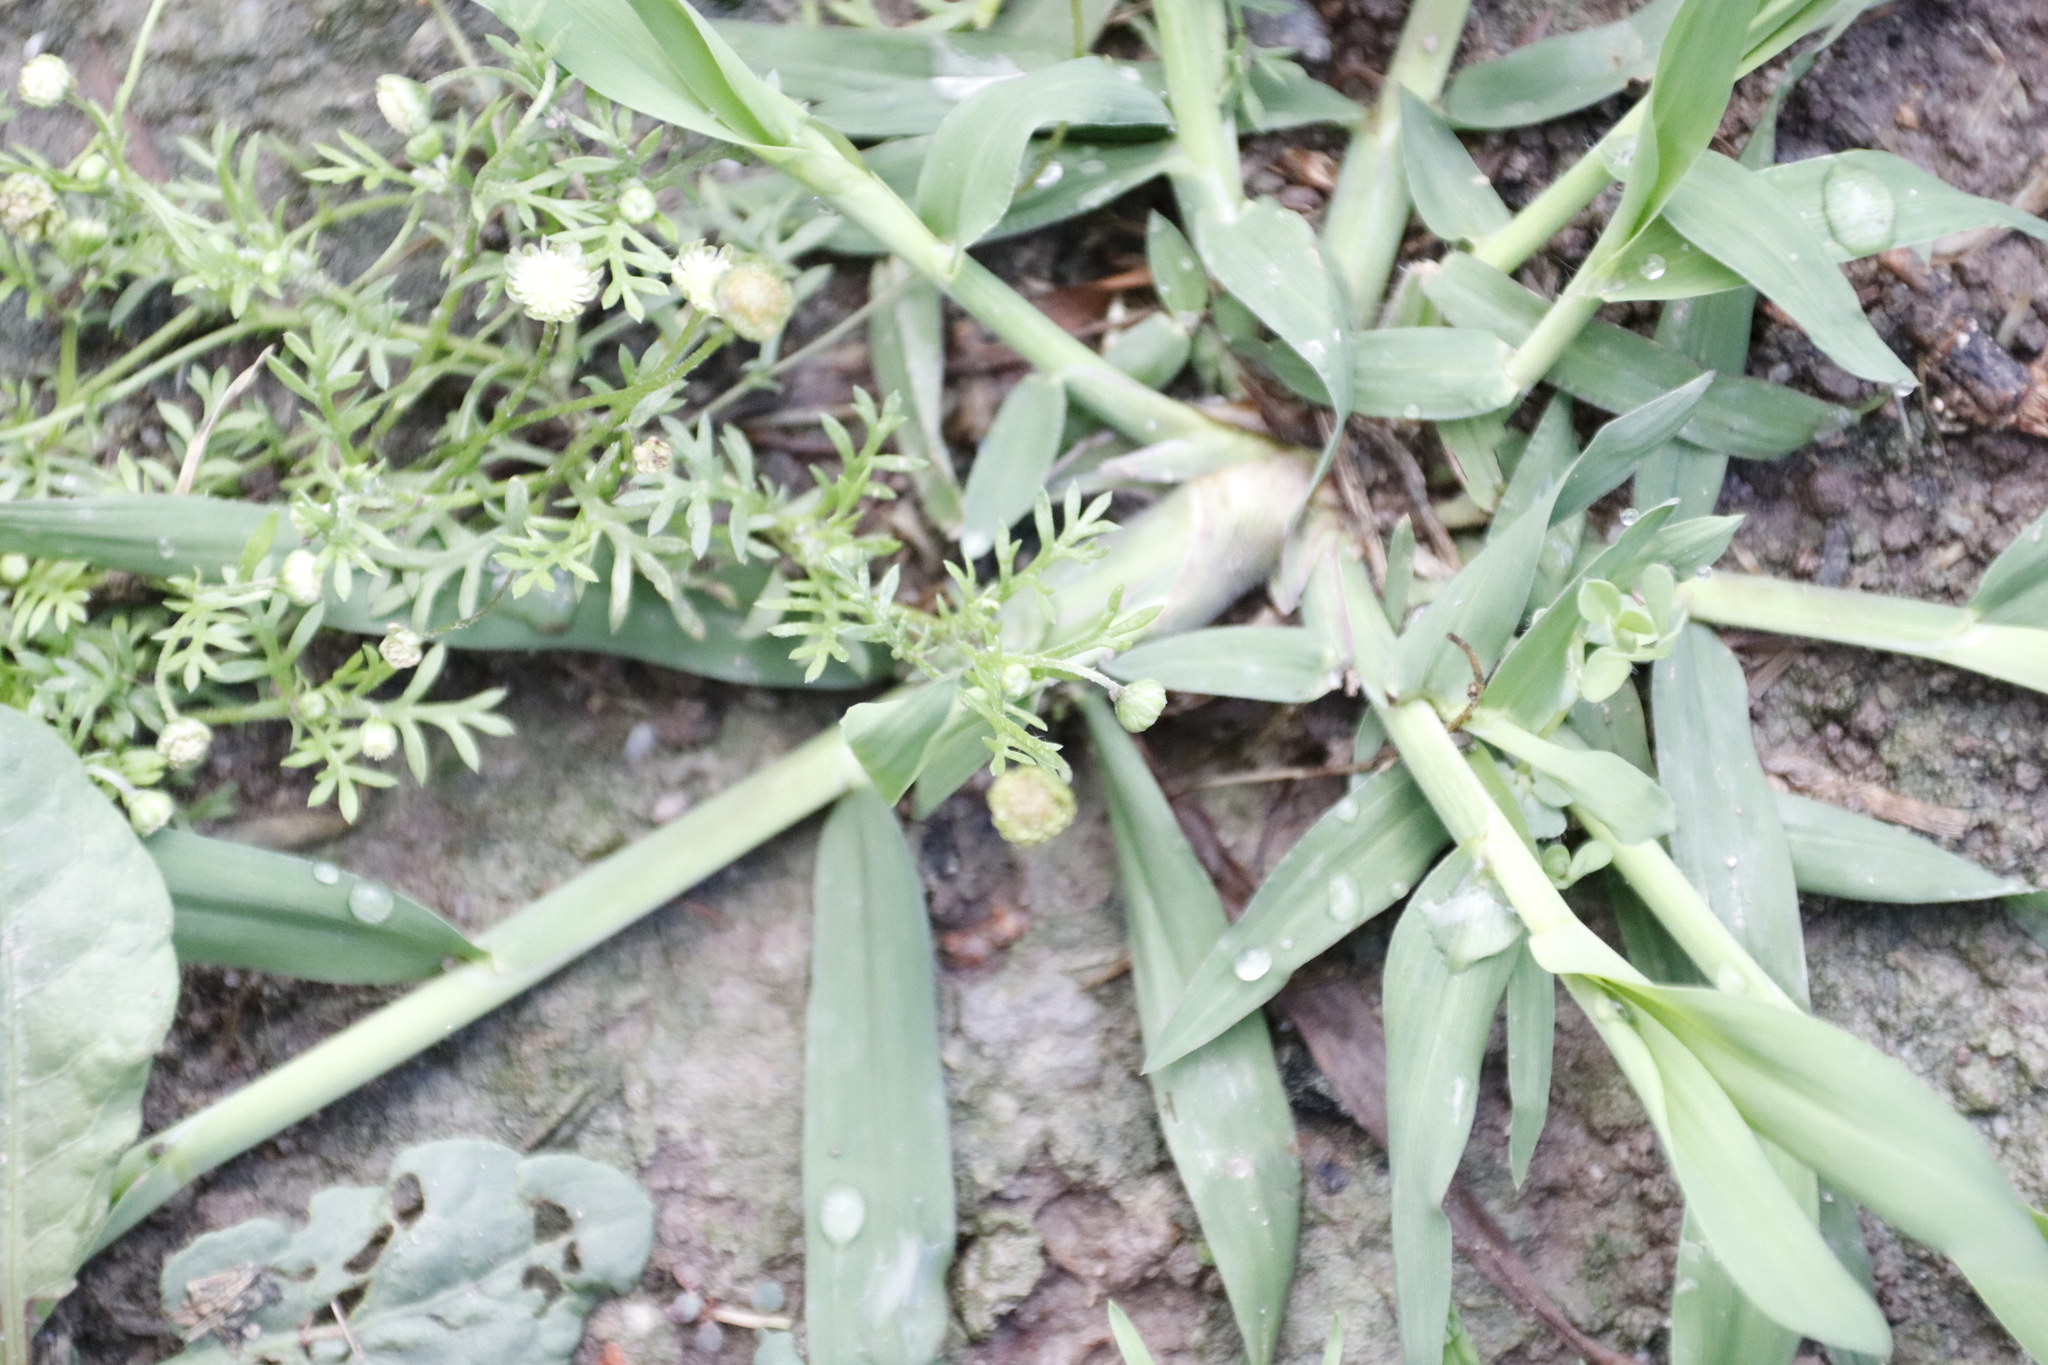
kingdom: Plantae
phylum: Tracheophyta
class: Magnoliopsida
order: Asterales
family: Asteraceae
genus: Cotula
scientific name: Cotula australis
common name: Australian waterbuttons
